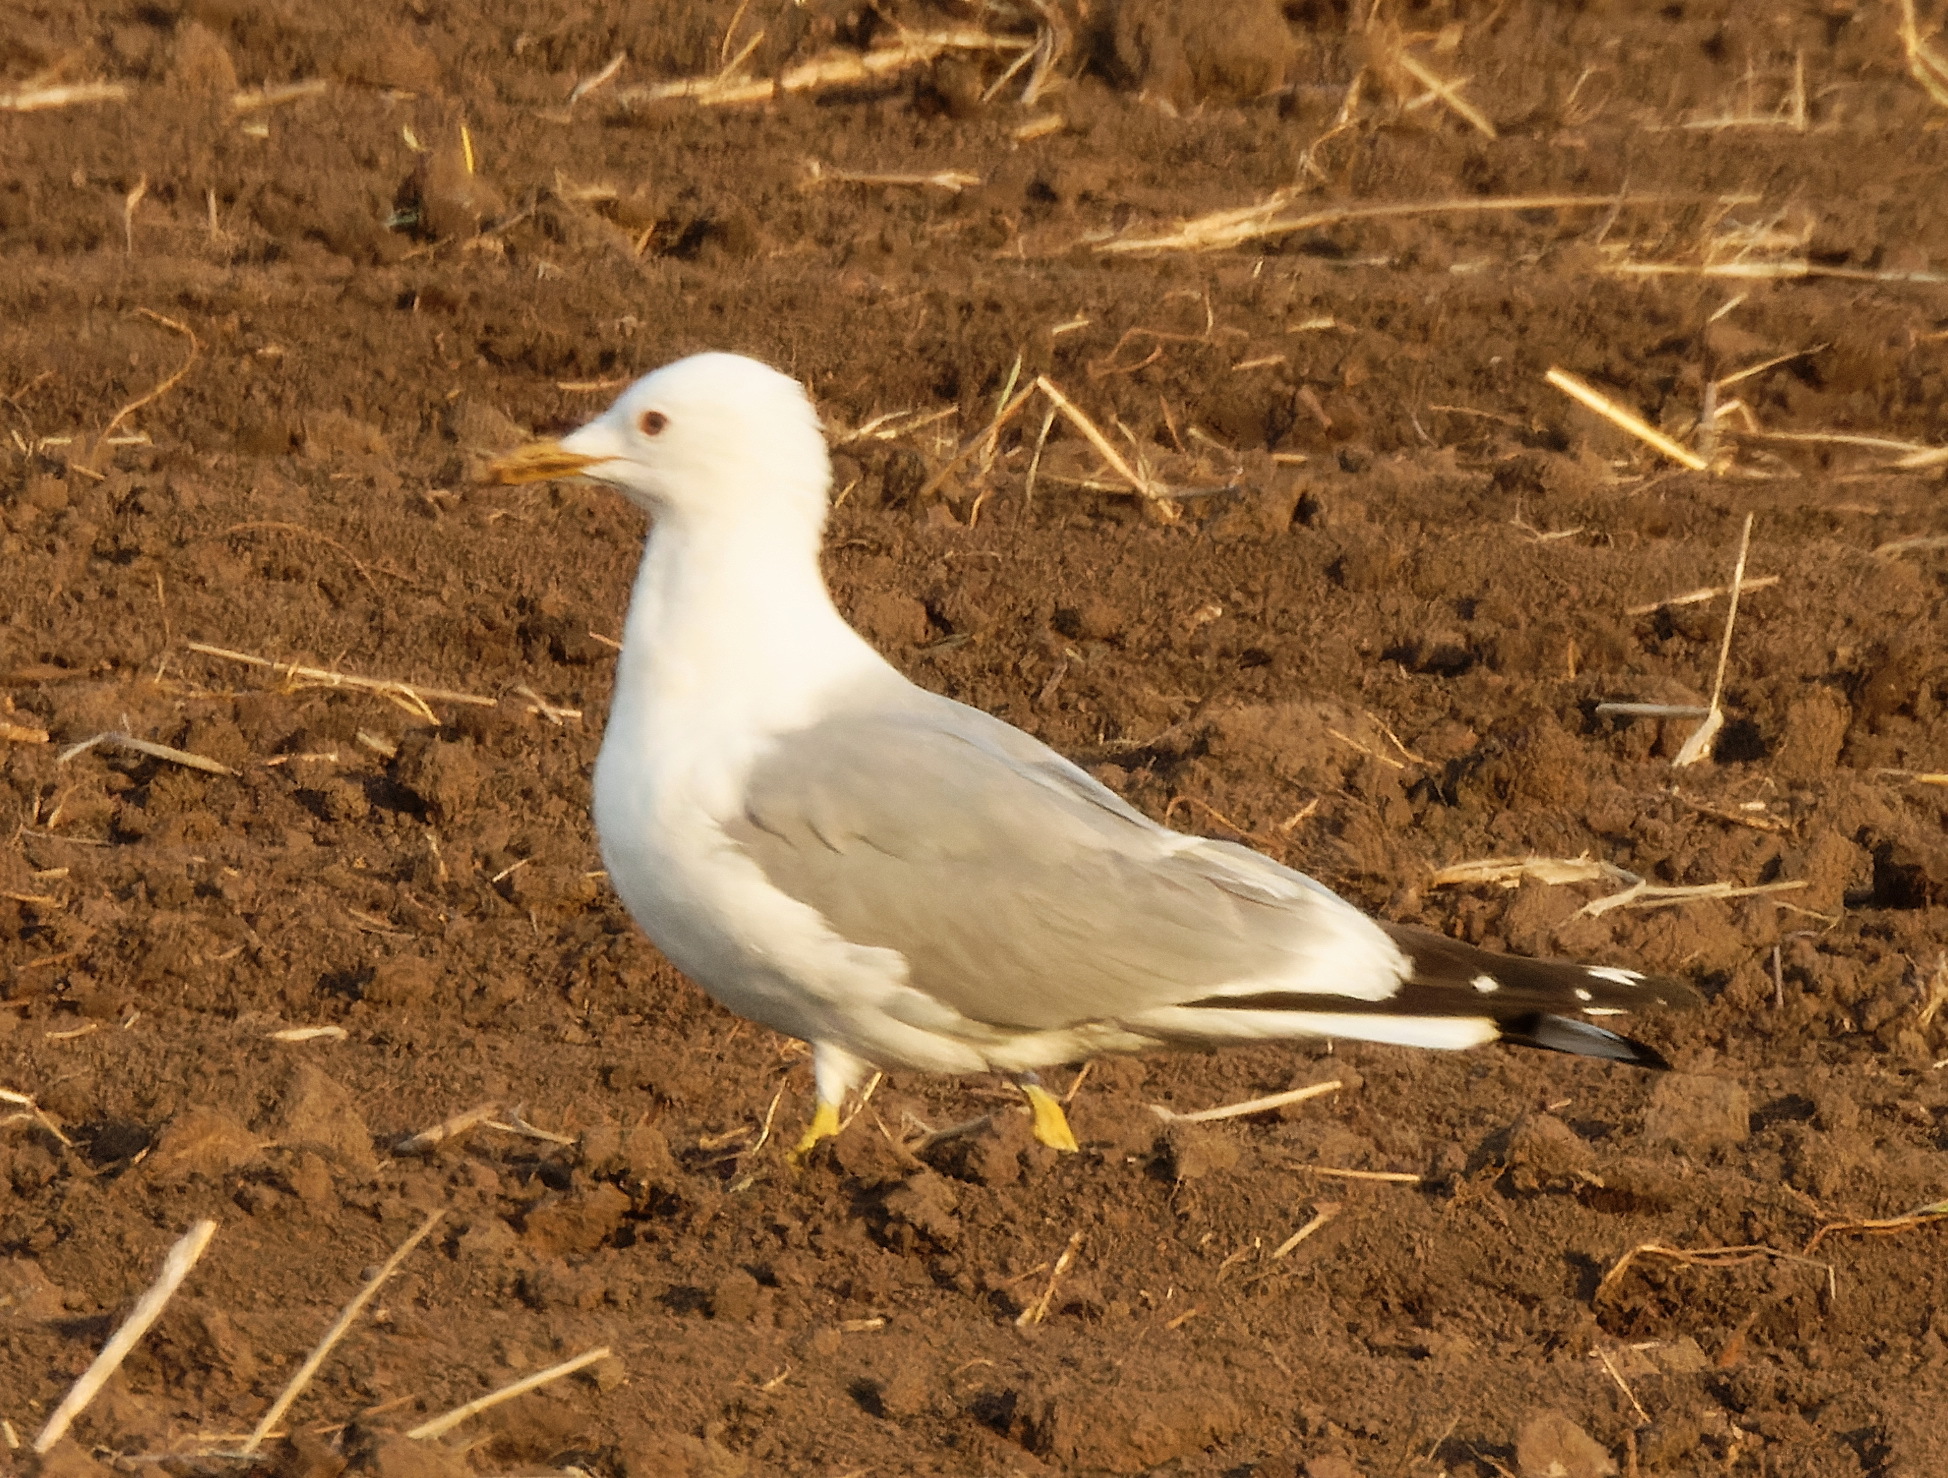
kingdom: Animalia
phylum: Chordata
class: Aves
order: Charadriiformes
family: Laridae
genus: Larus
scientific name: Larus canus
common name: Mew gull
